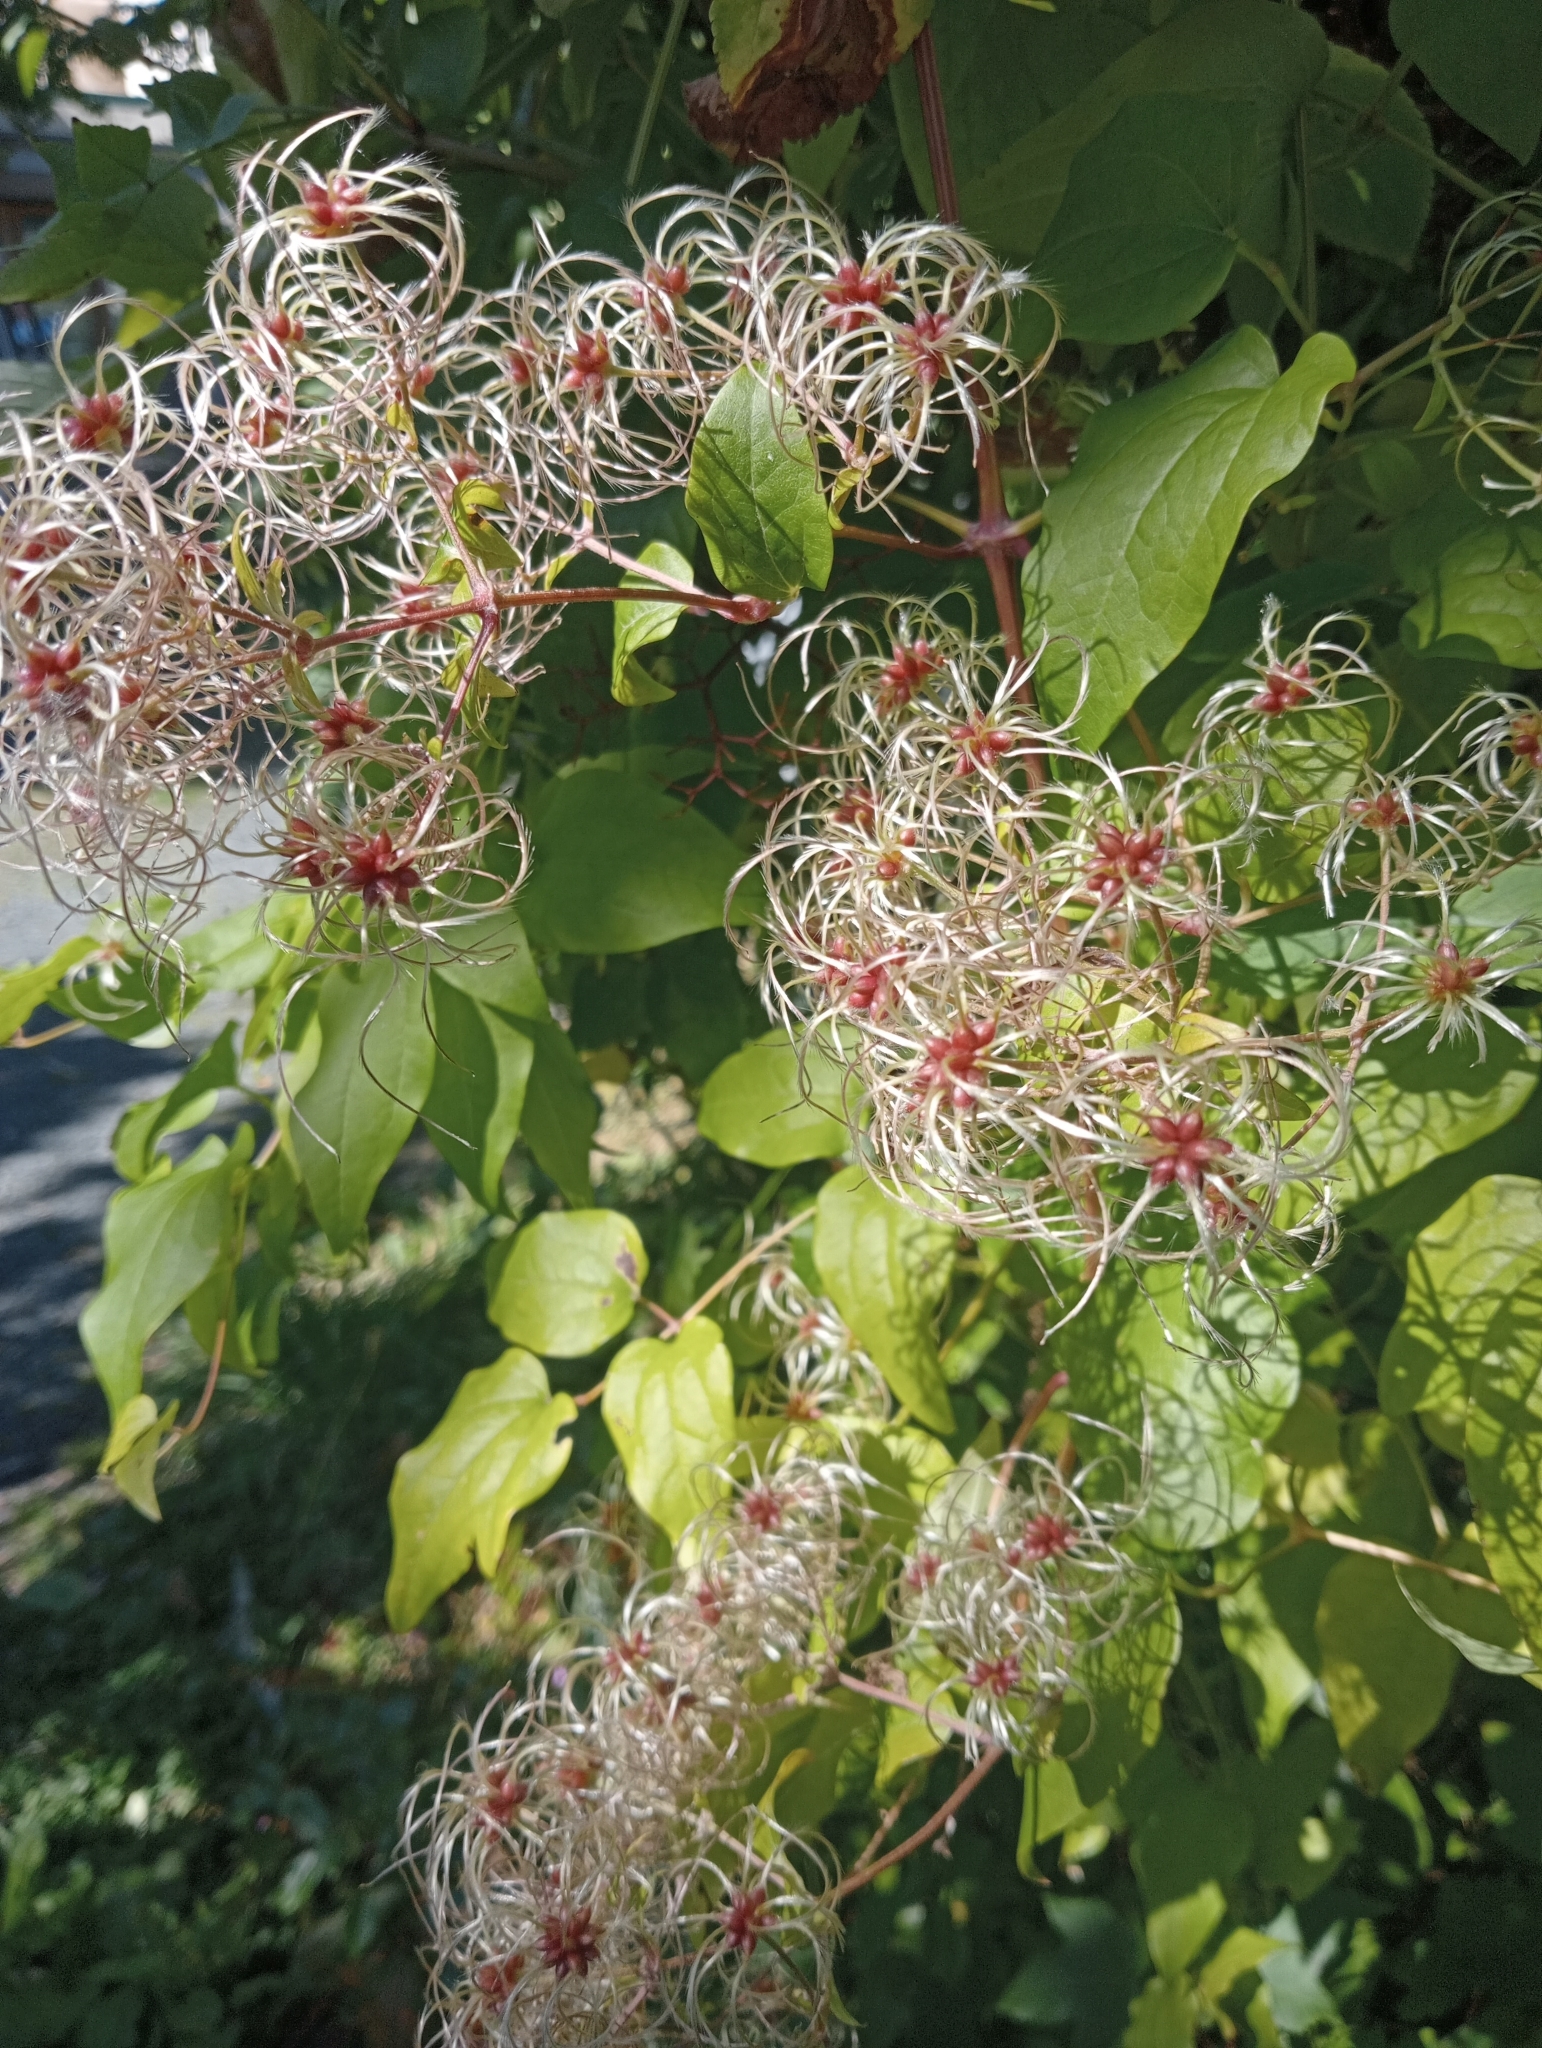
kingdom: Plantae
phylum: Tracheophyta
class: Magnoliopsida
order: Ranunculales
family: Ranunculaceae
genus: Clematis
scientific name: Clematis vitalba
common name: Evergreen clematis
